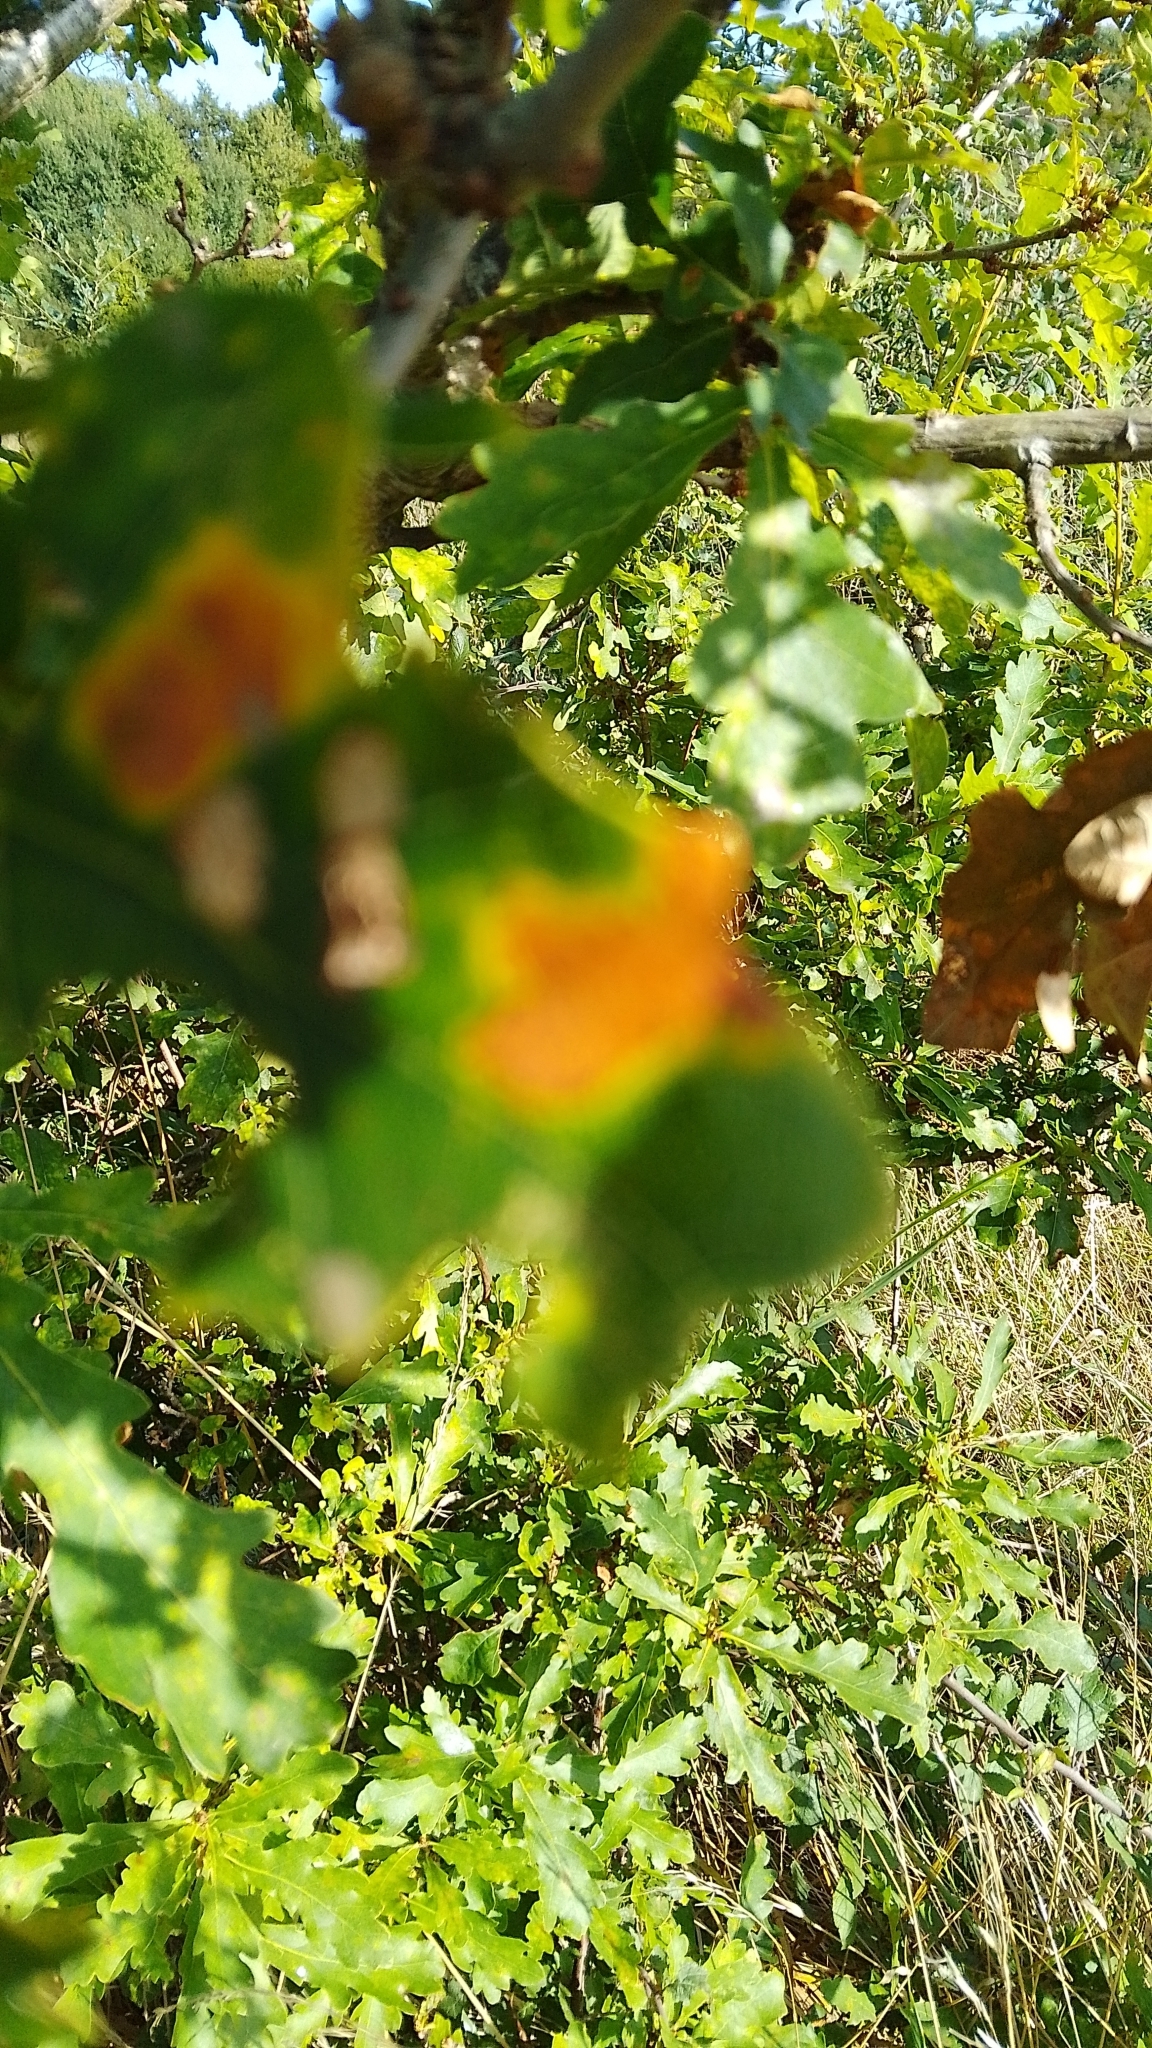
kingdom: Animalia
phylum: Arthropoda
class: Insecta
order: Hymenoptera
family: Cynipidae
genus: Neuroterus
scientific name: Neuroterus albipes
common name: Smooth spangle gall
